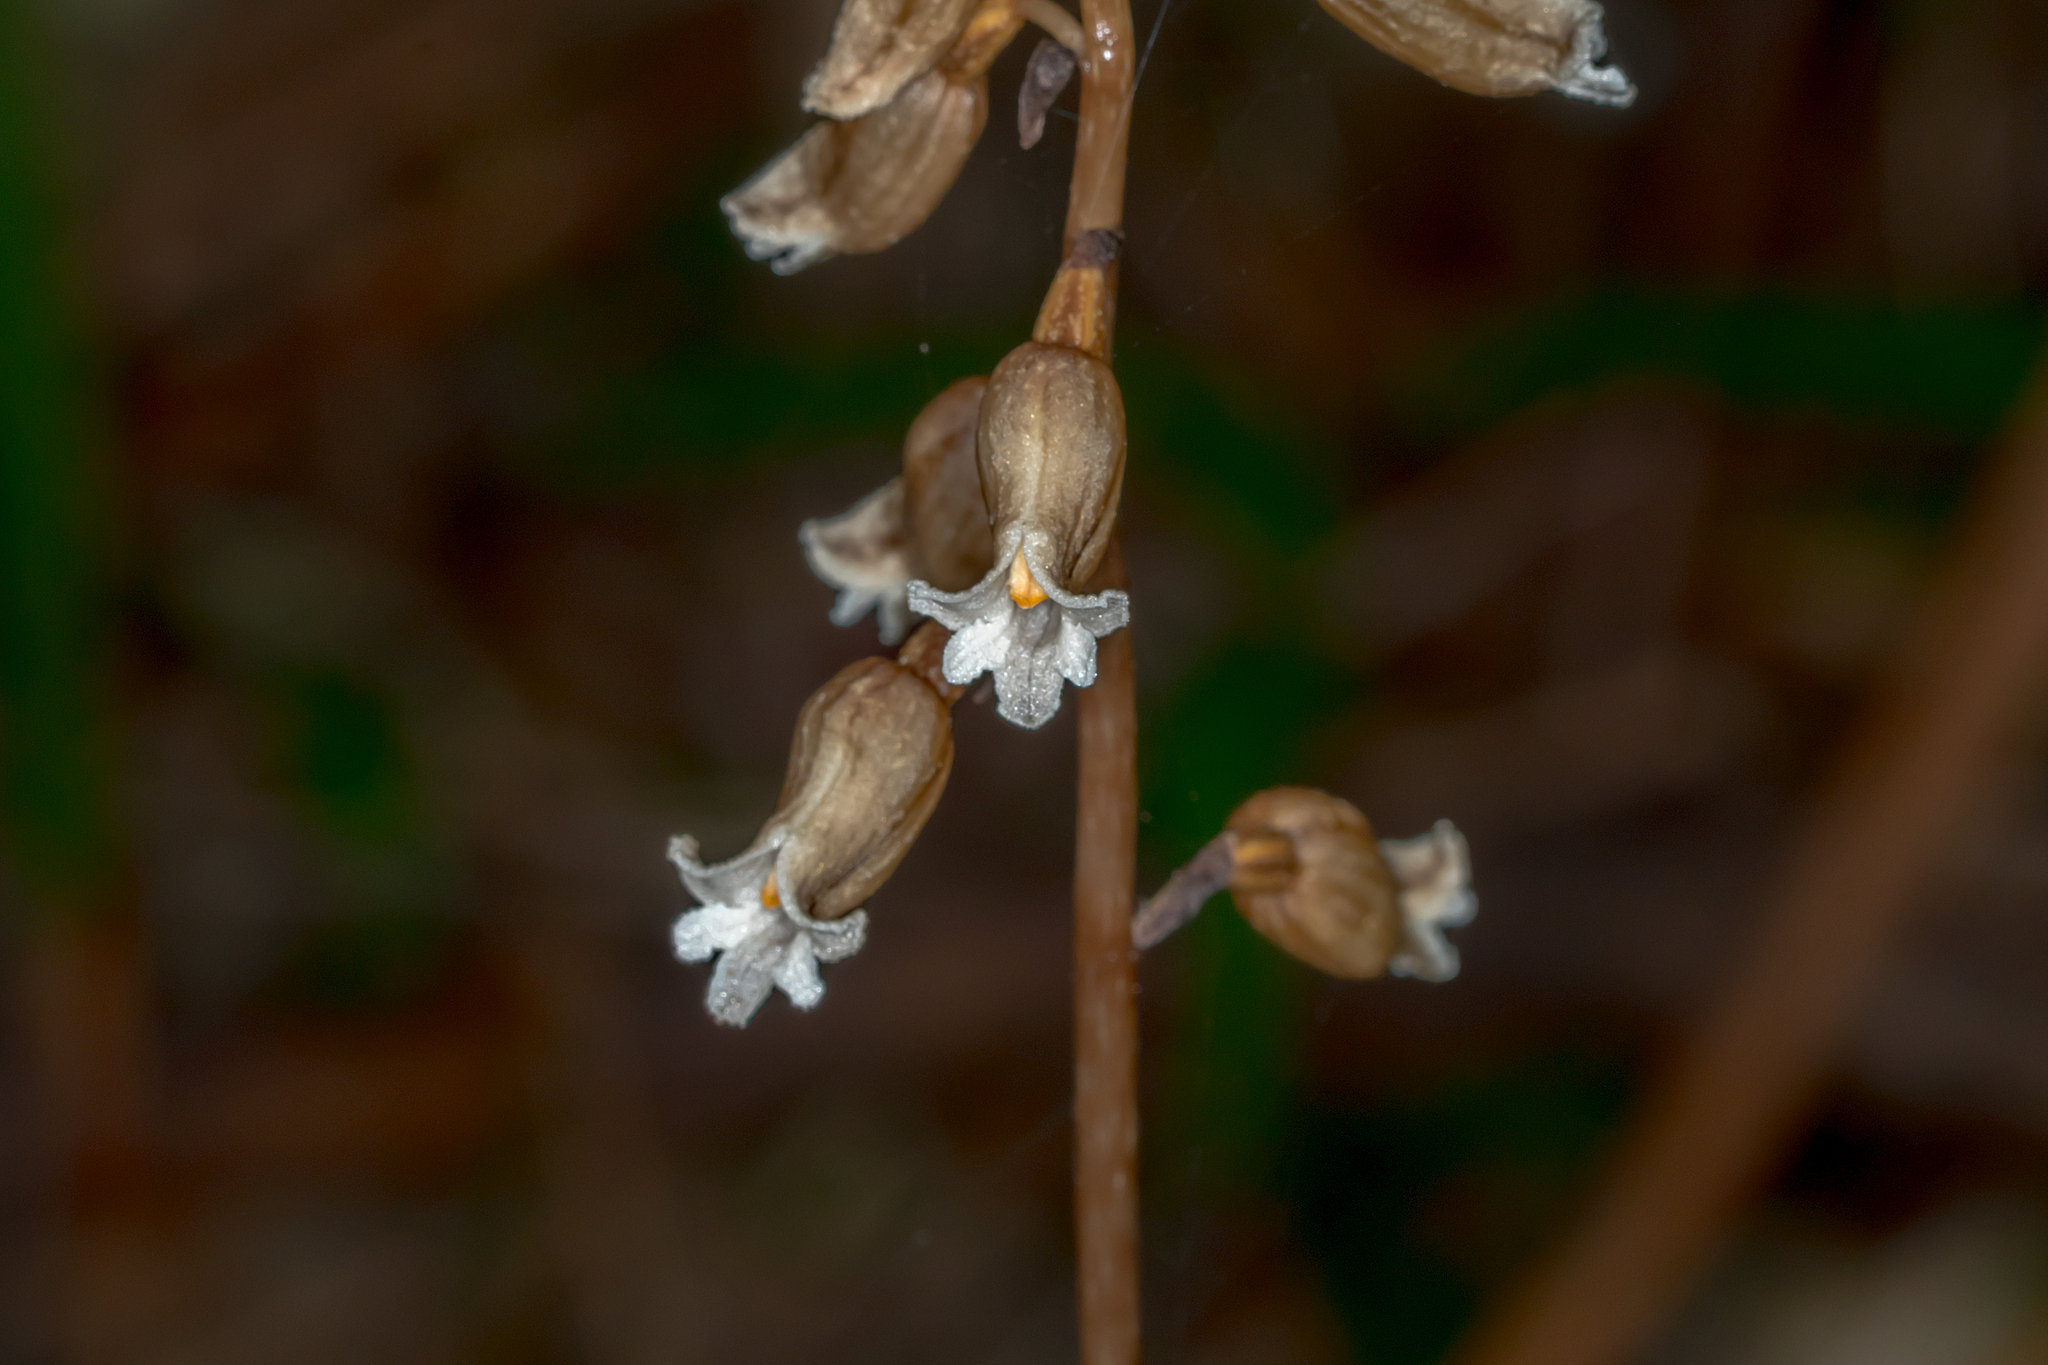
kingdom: Plantae
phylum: Tracheophyta
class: Liliopsida
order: Asparagales
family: Orchidaceae
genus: Gastrodia
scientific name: Gastrodia procera
